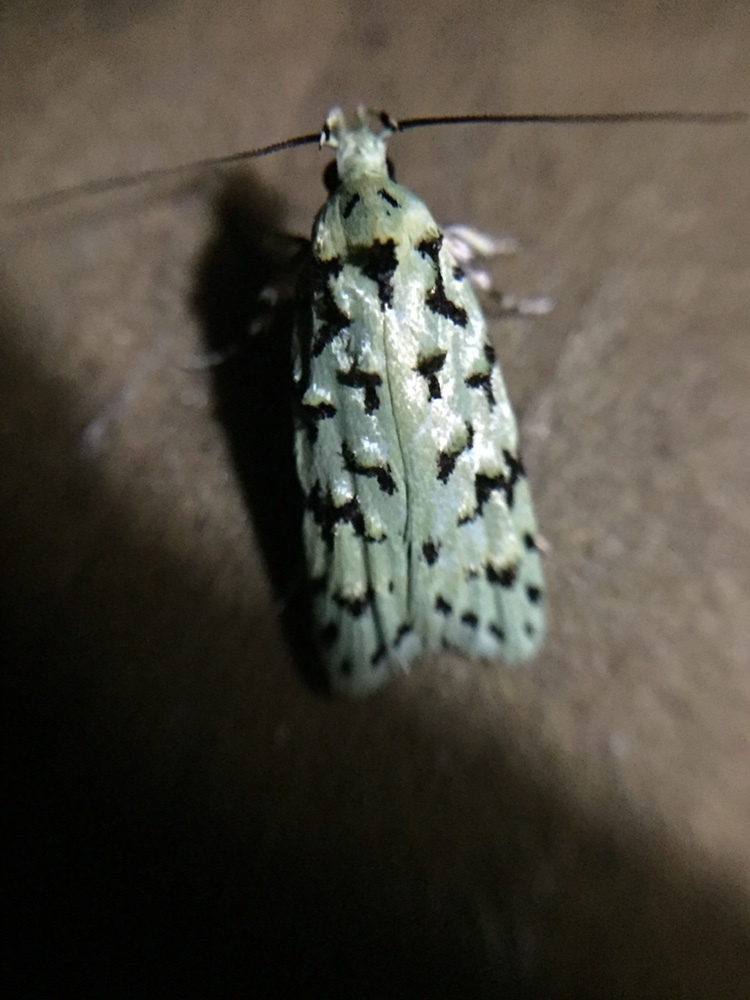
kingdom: Animalia
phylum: Arthropoda
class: Insecta
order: Lepidoptera
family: Oecophoridae
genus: Izatha
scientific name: Izatha peroneanella
